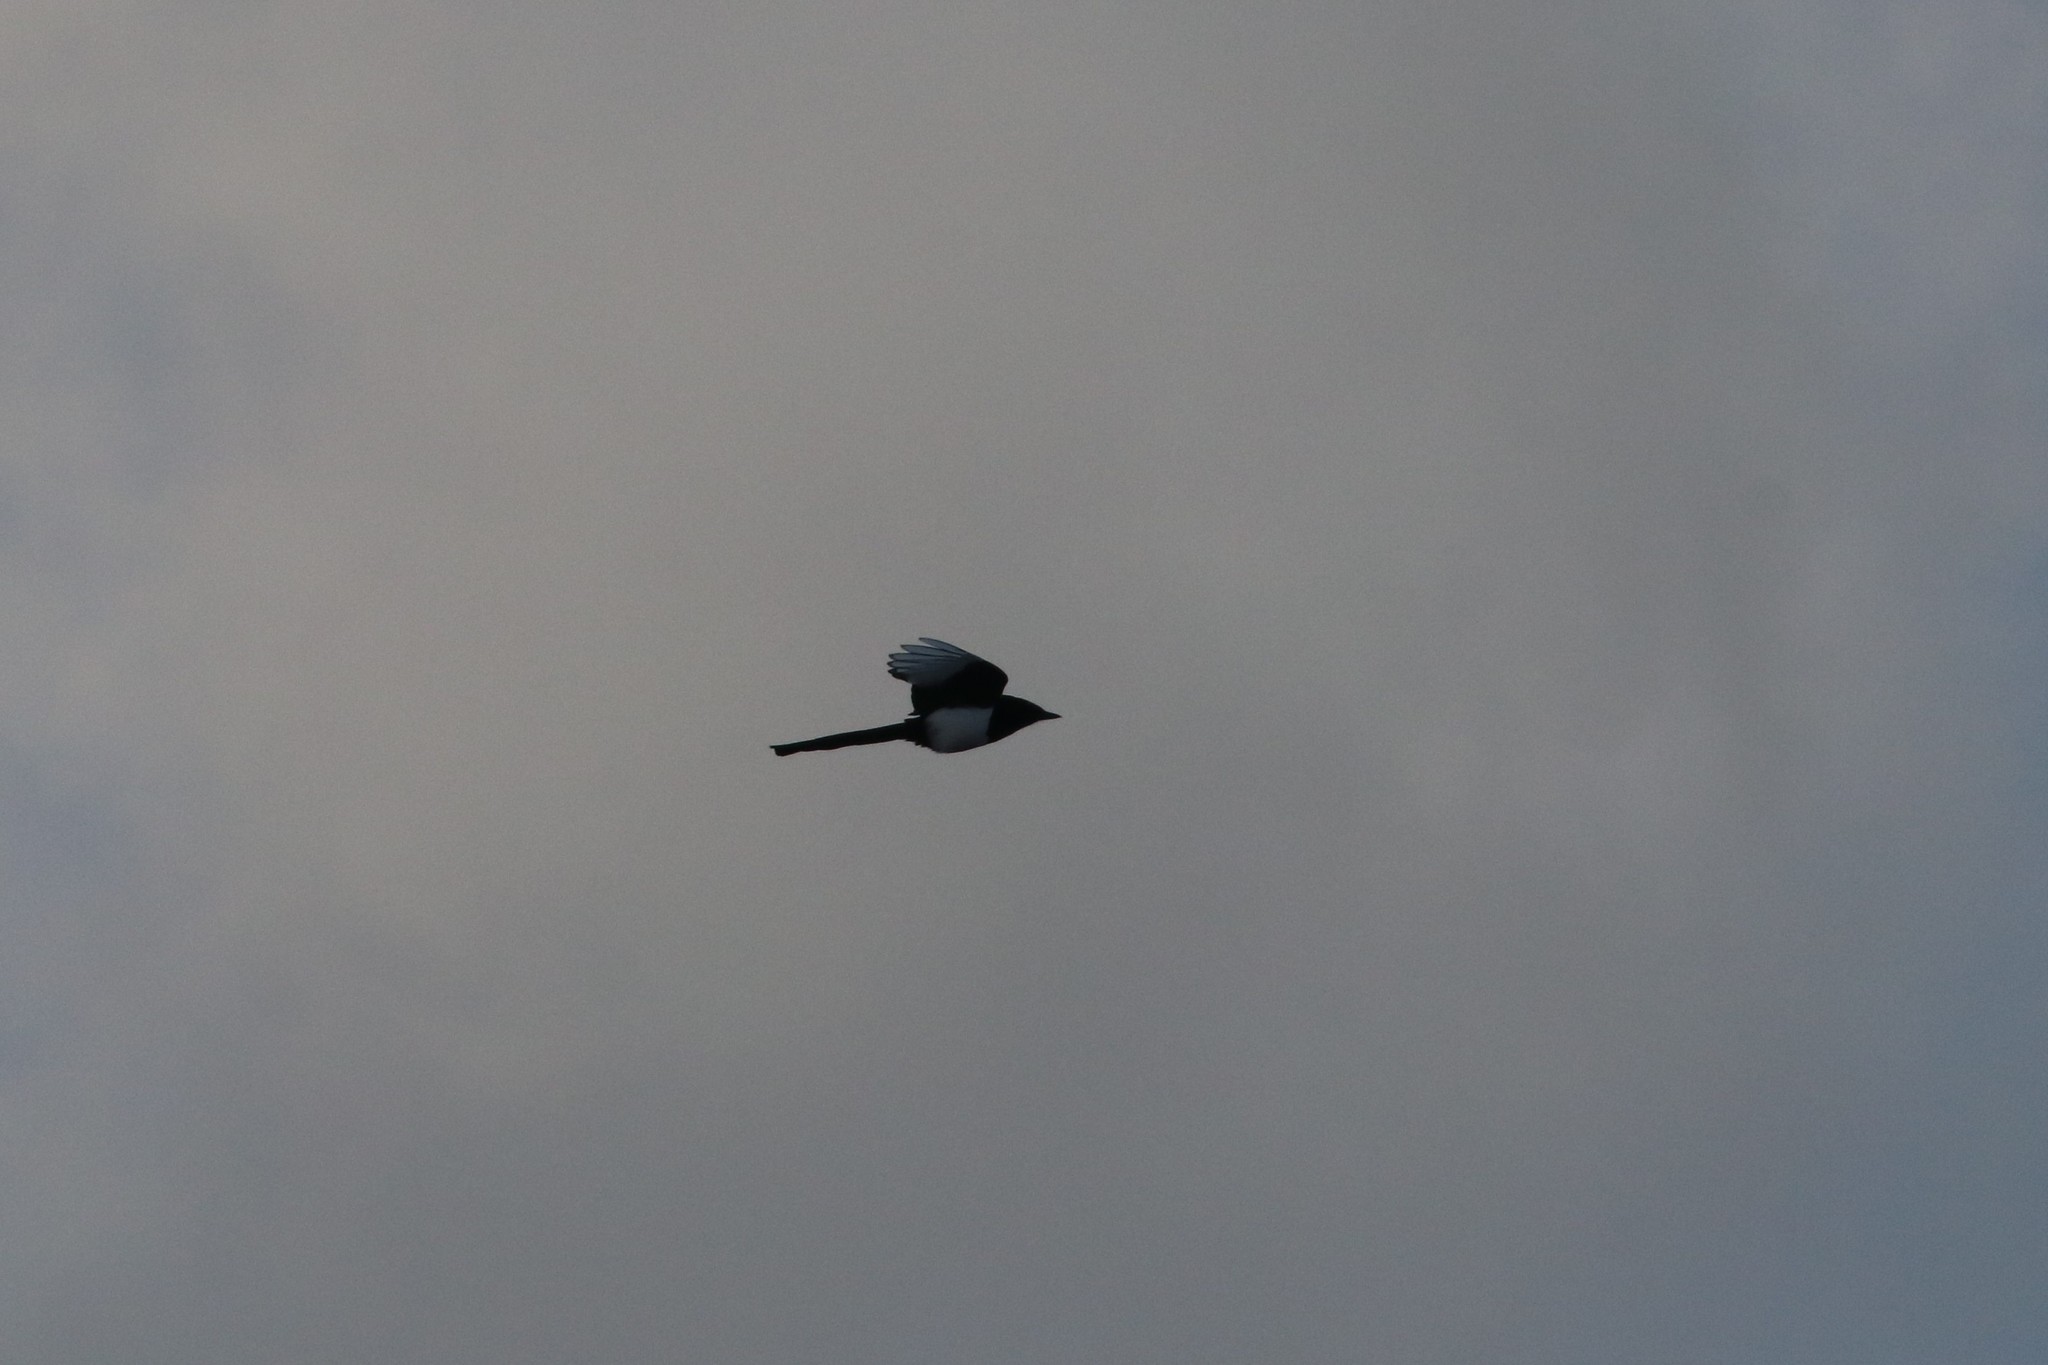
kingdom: Animalia
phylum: Chordata
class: Aves
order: Passeriformes
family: Corvidae
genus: Pica
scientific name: Pica pica
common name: Eurasian magpie
